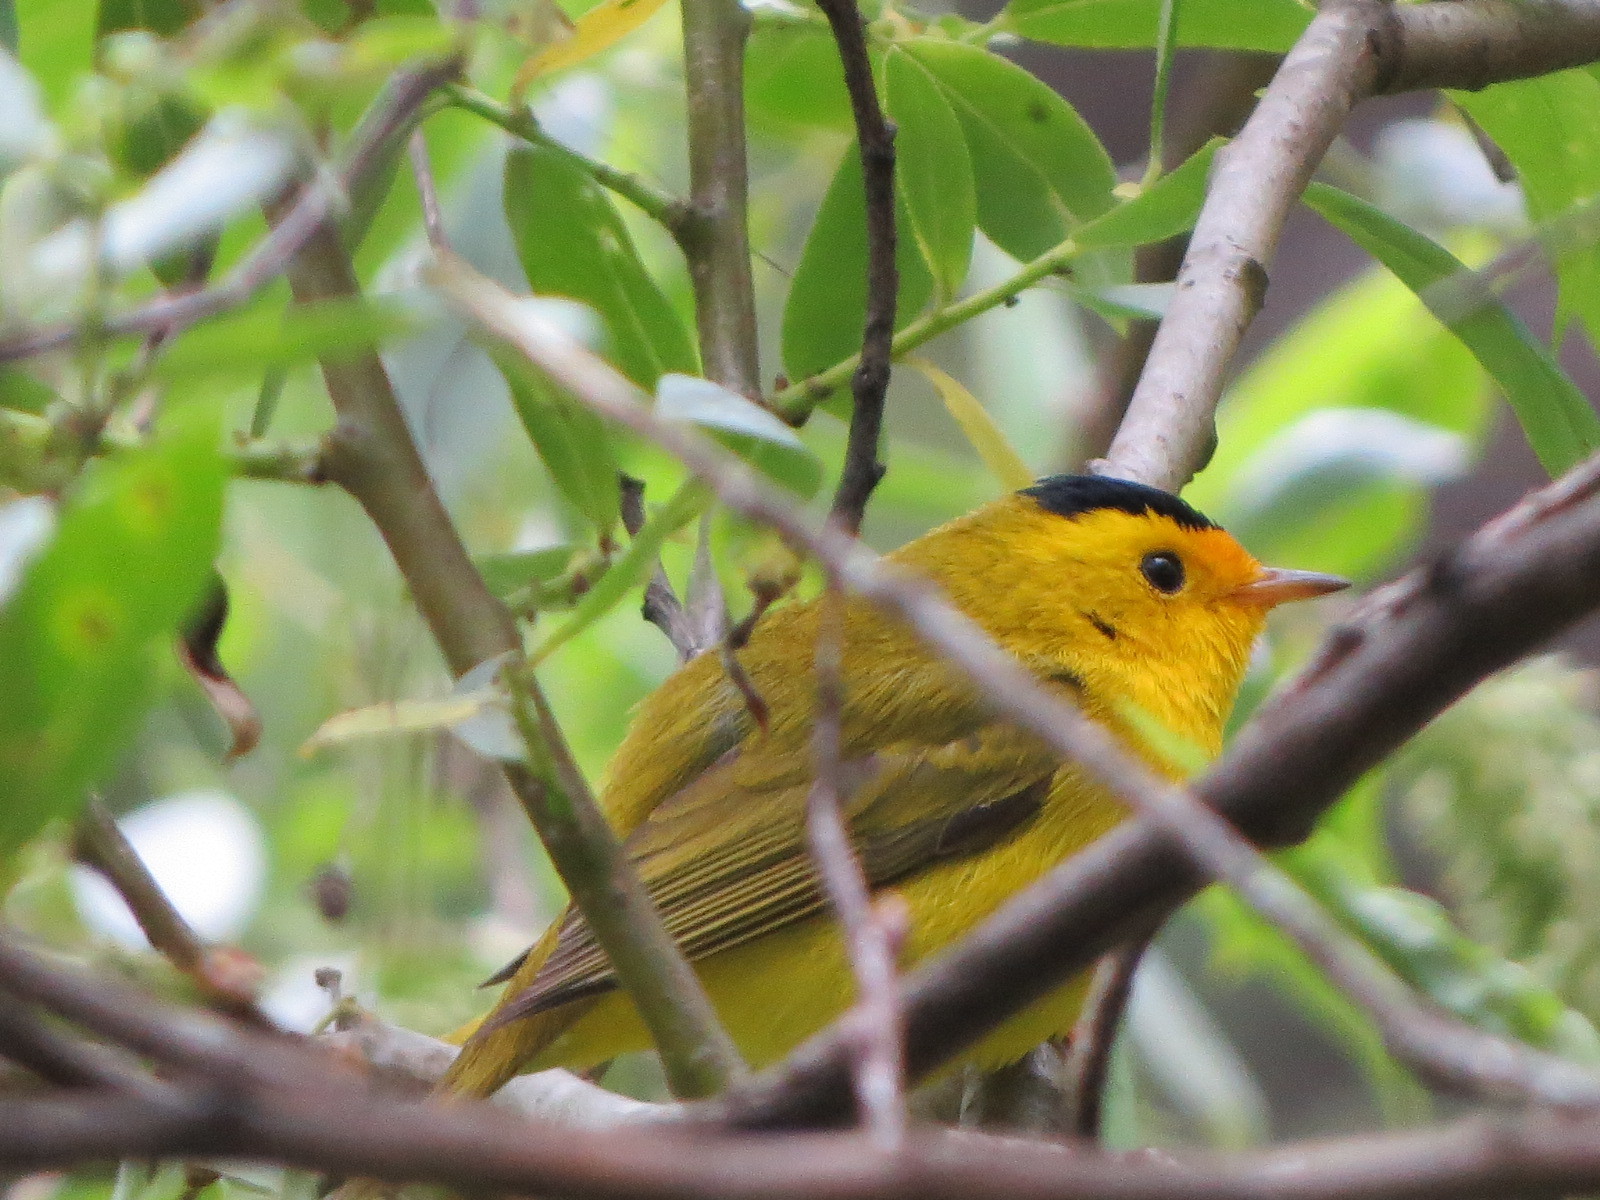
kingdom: Animalia
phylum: Chordata
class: Aves
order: Passeriformes
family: Parulidae
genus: Cardellina
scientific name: Cardellina pusilla
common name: Wilson's warbler
